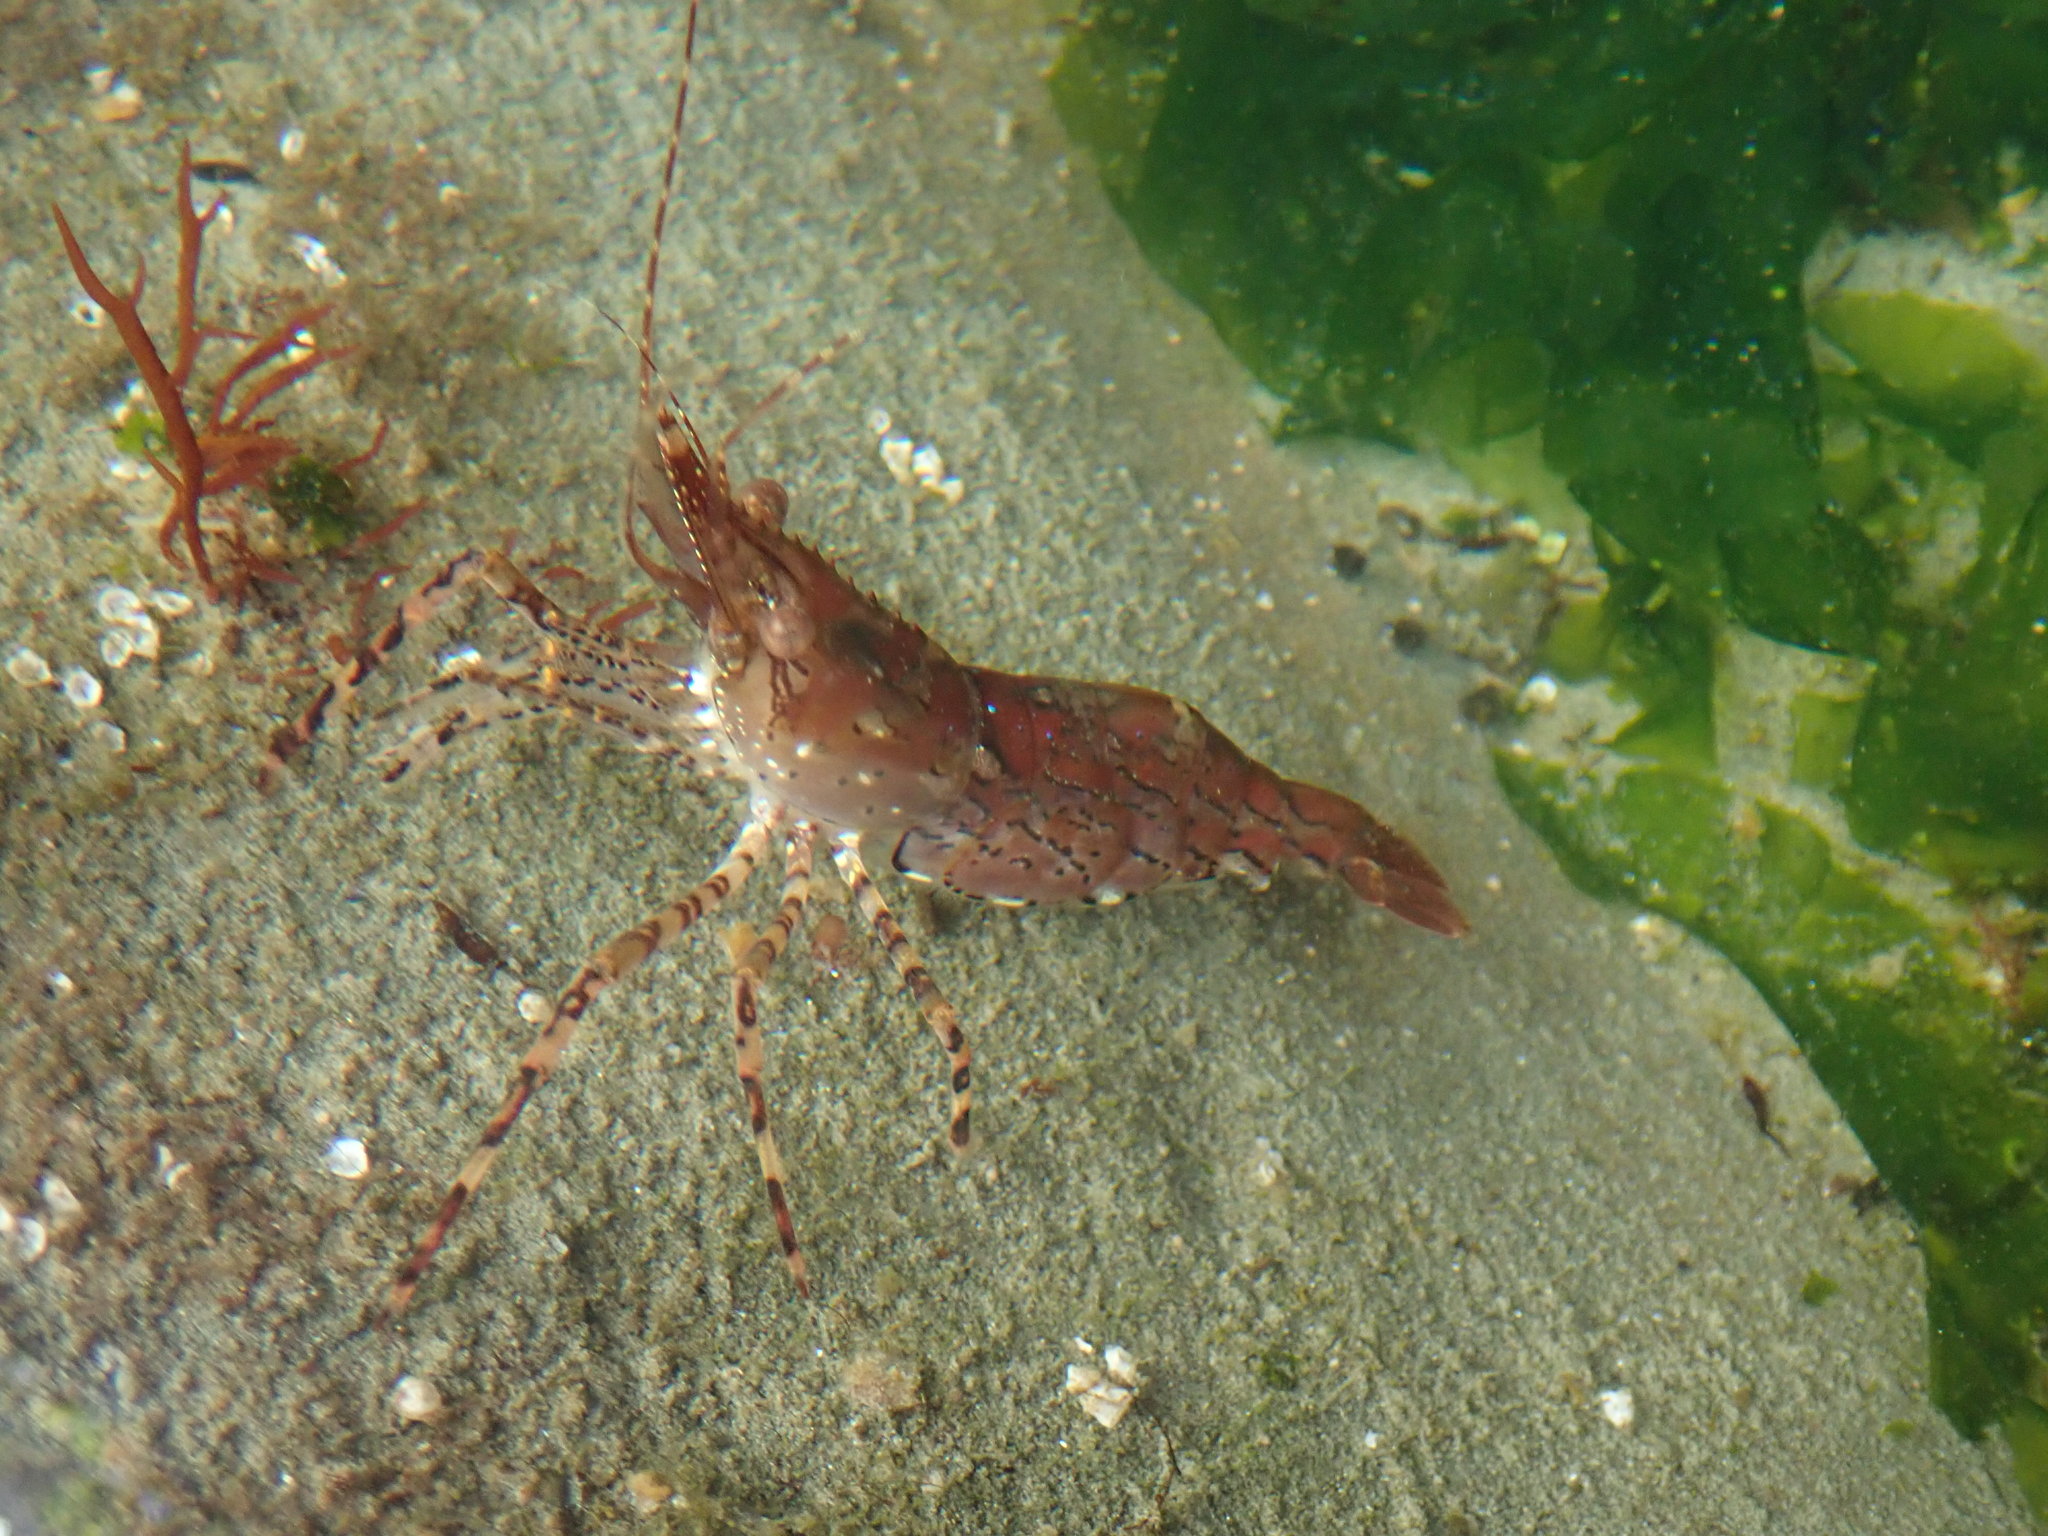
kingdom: Animalia
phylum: Arthropoda
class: Malacostraca
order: Decapoda
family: Pandalidae
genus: Pandalus
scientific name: Pandalus danae
